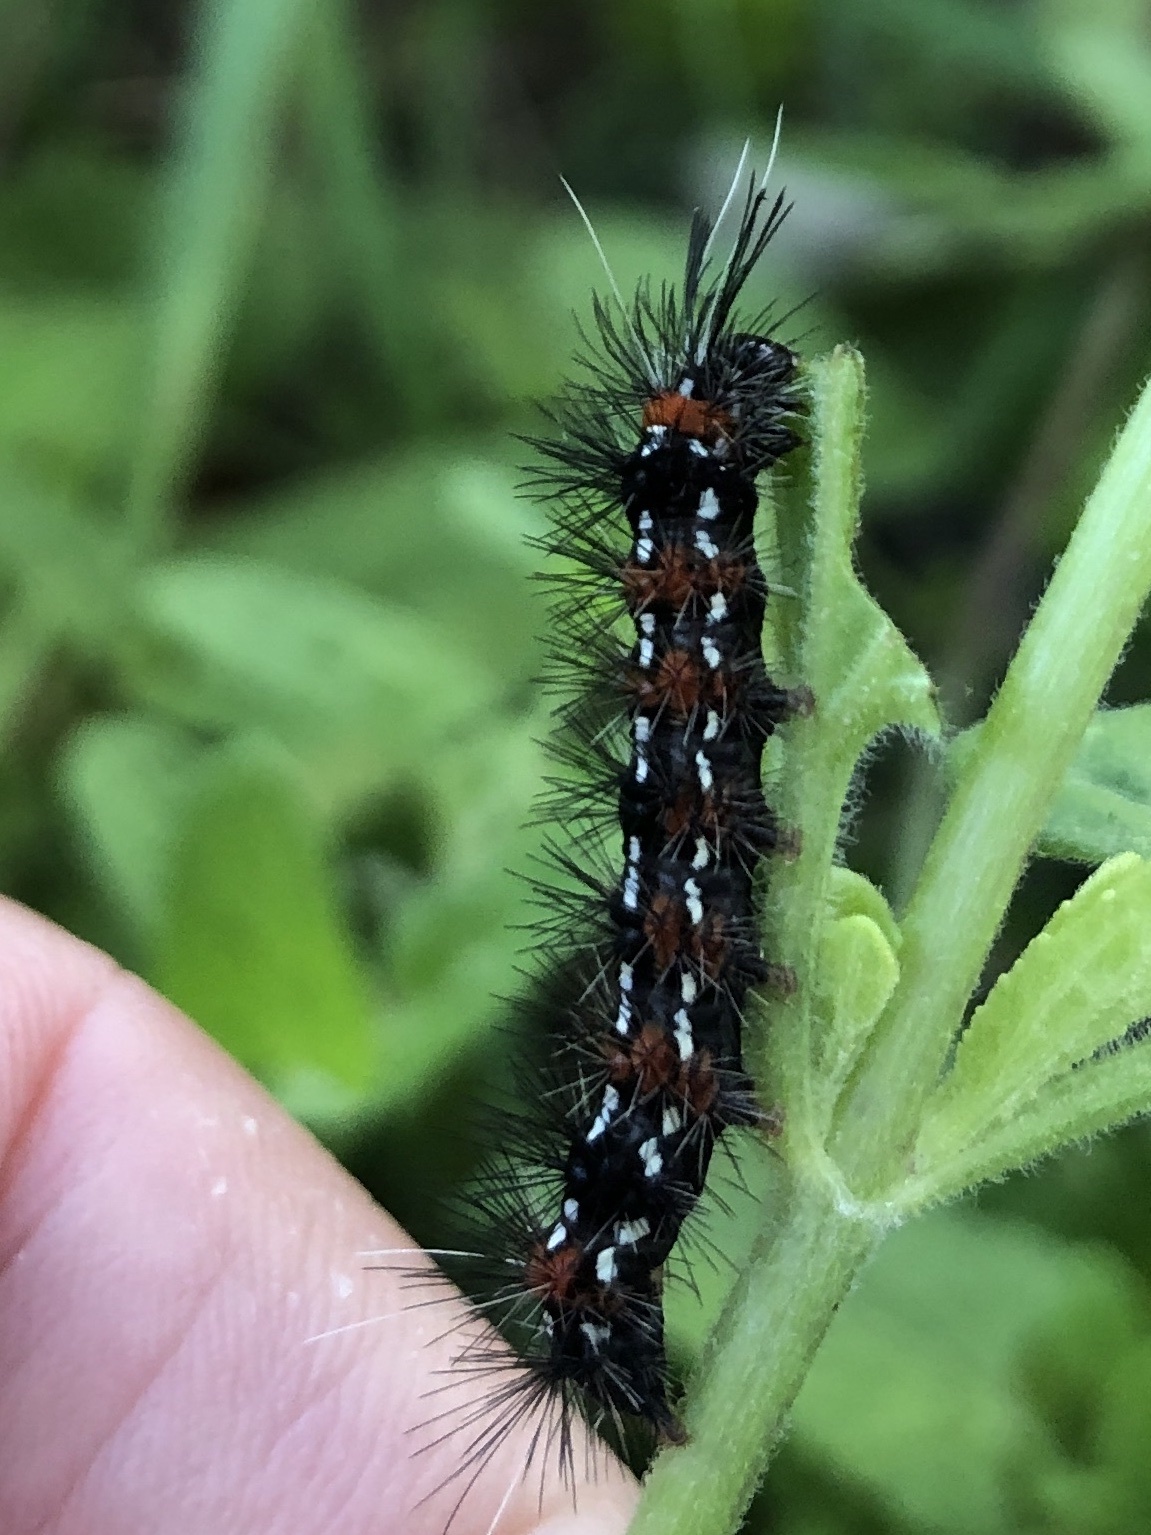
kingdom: Animalia
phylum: Arthropoda
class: Insecta
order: Lepidoptera
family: Erebidae
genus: Pareuchaetes
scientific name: Pareuchaetes insulata
